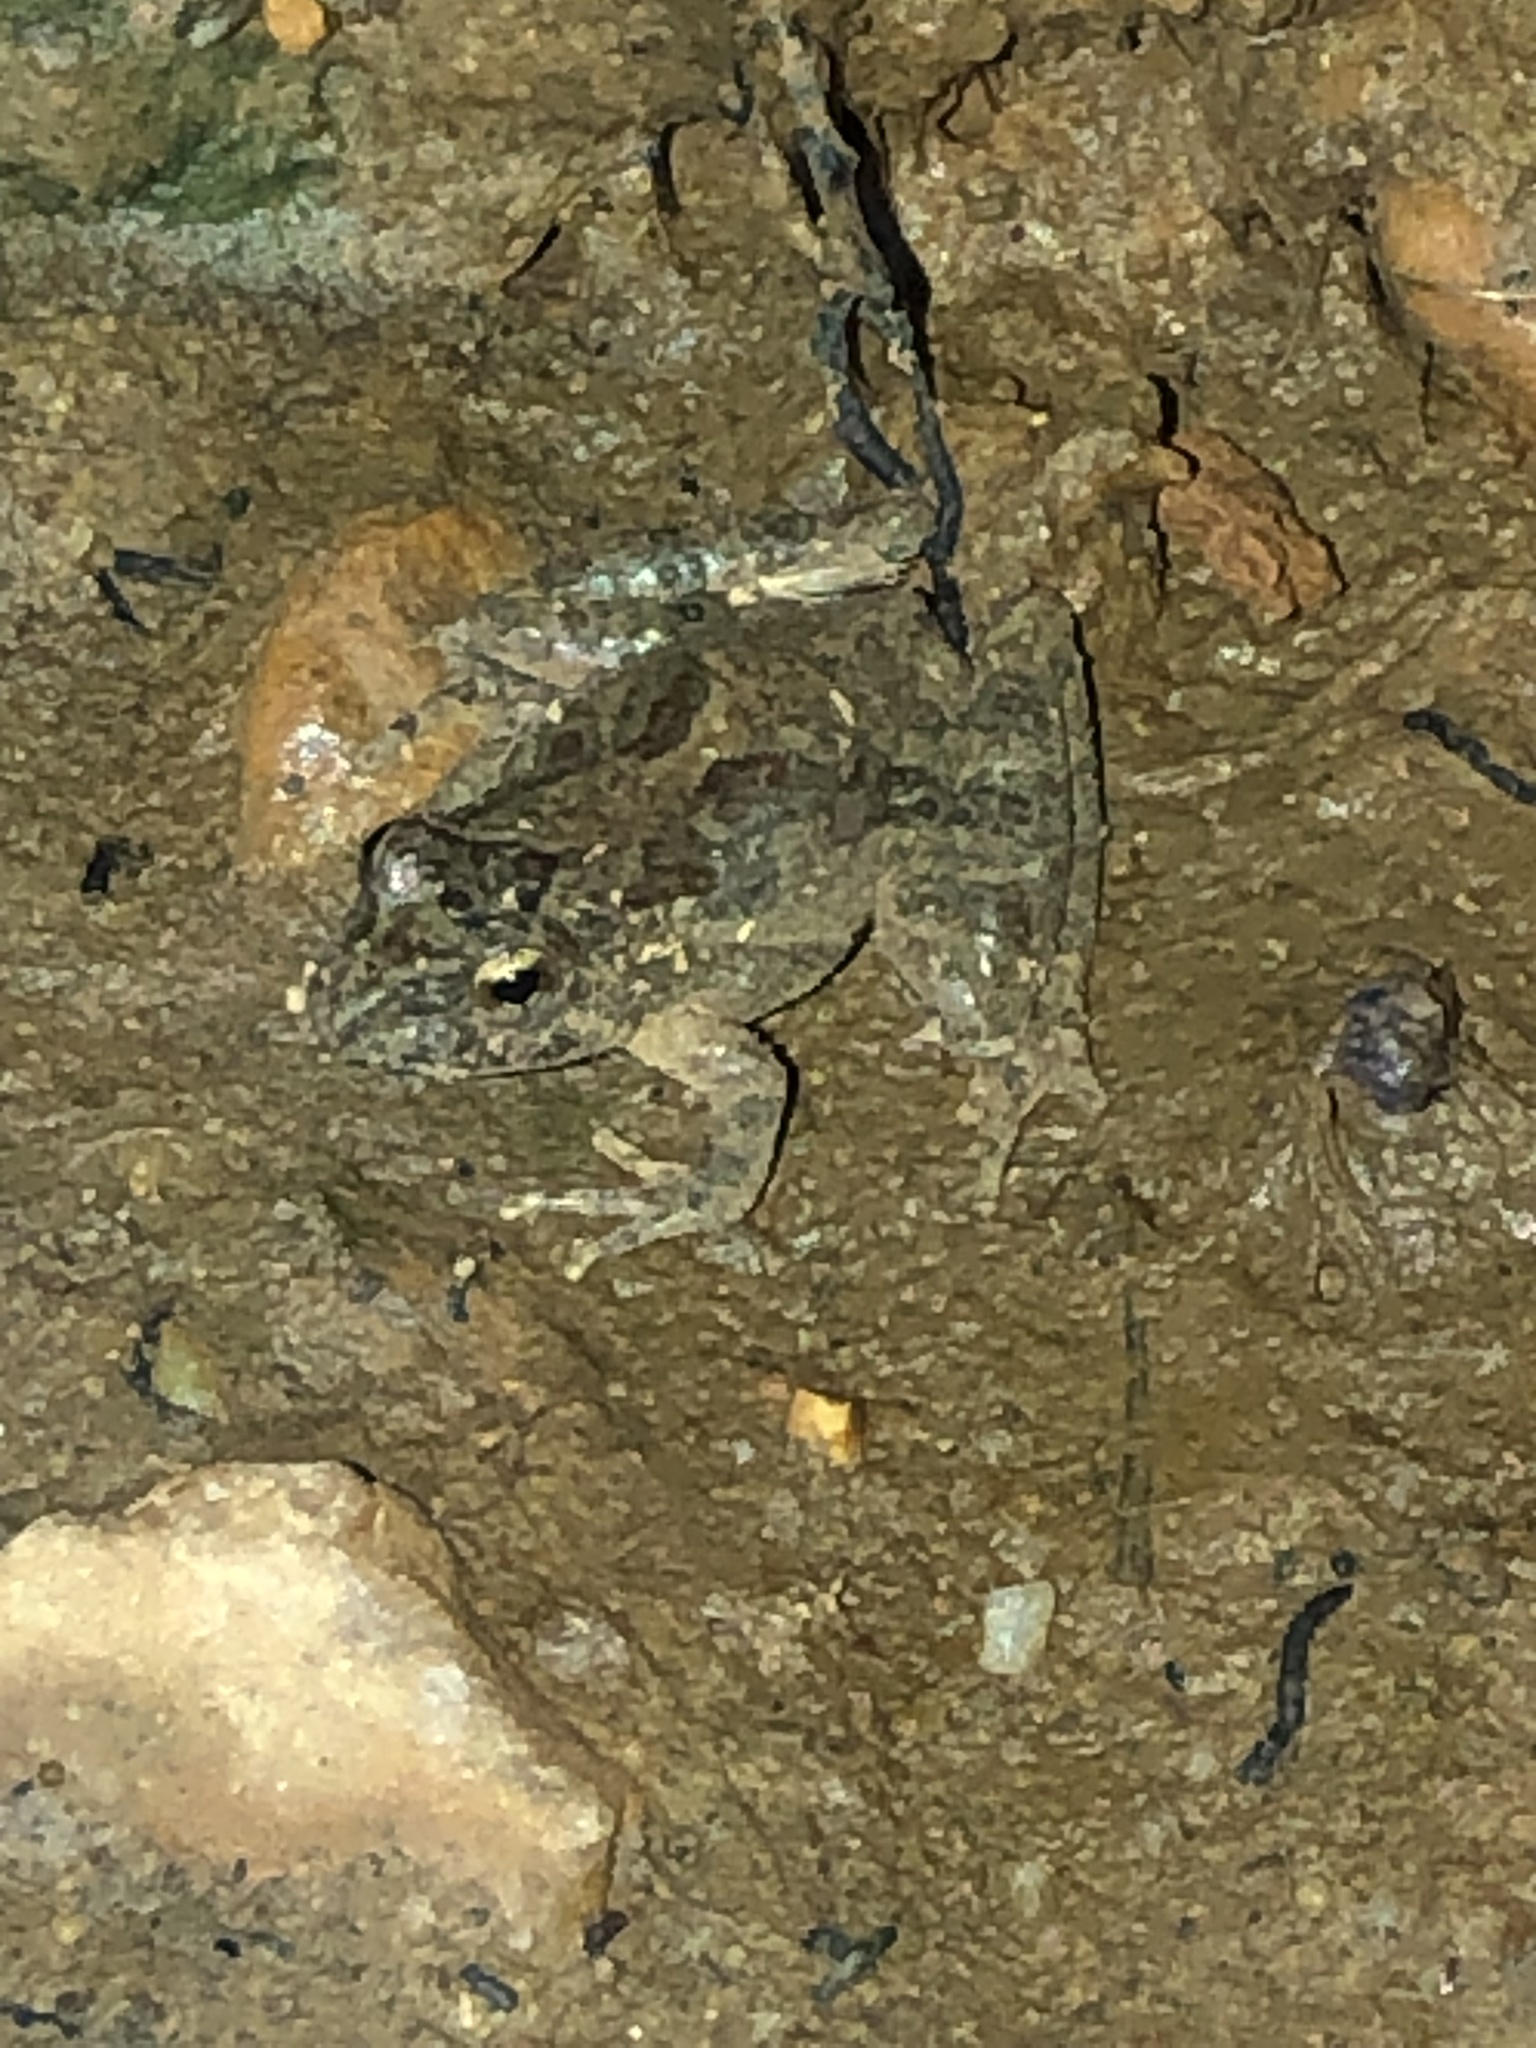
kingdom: Animalia
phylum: Chordata
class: Amphibia
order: Anura
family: Hylidae
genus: Acris
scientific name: Acris blanchardi
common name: Blanchard's cricket frog
